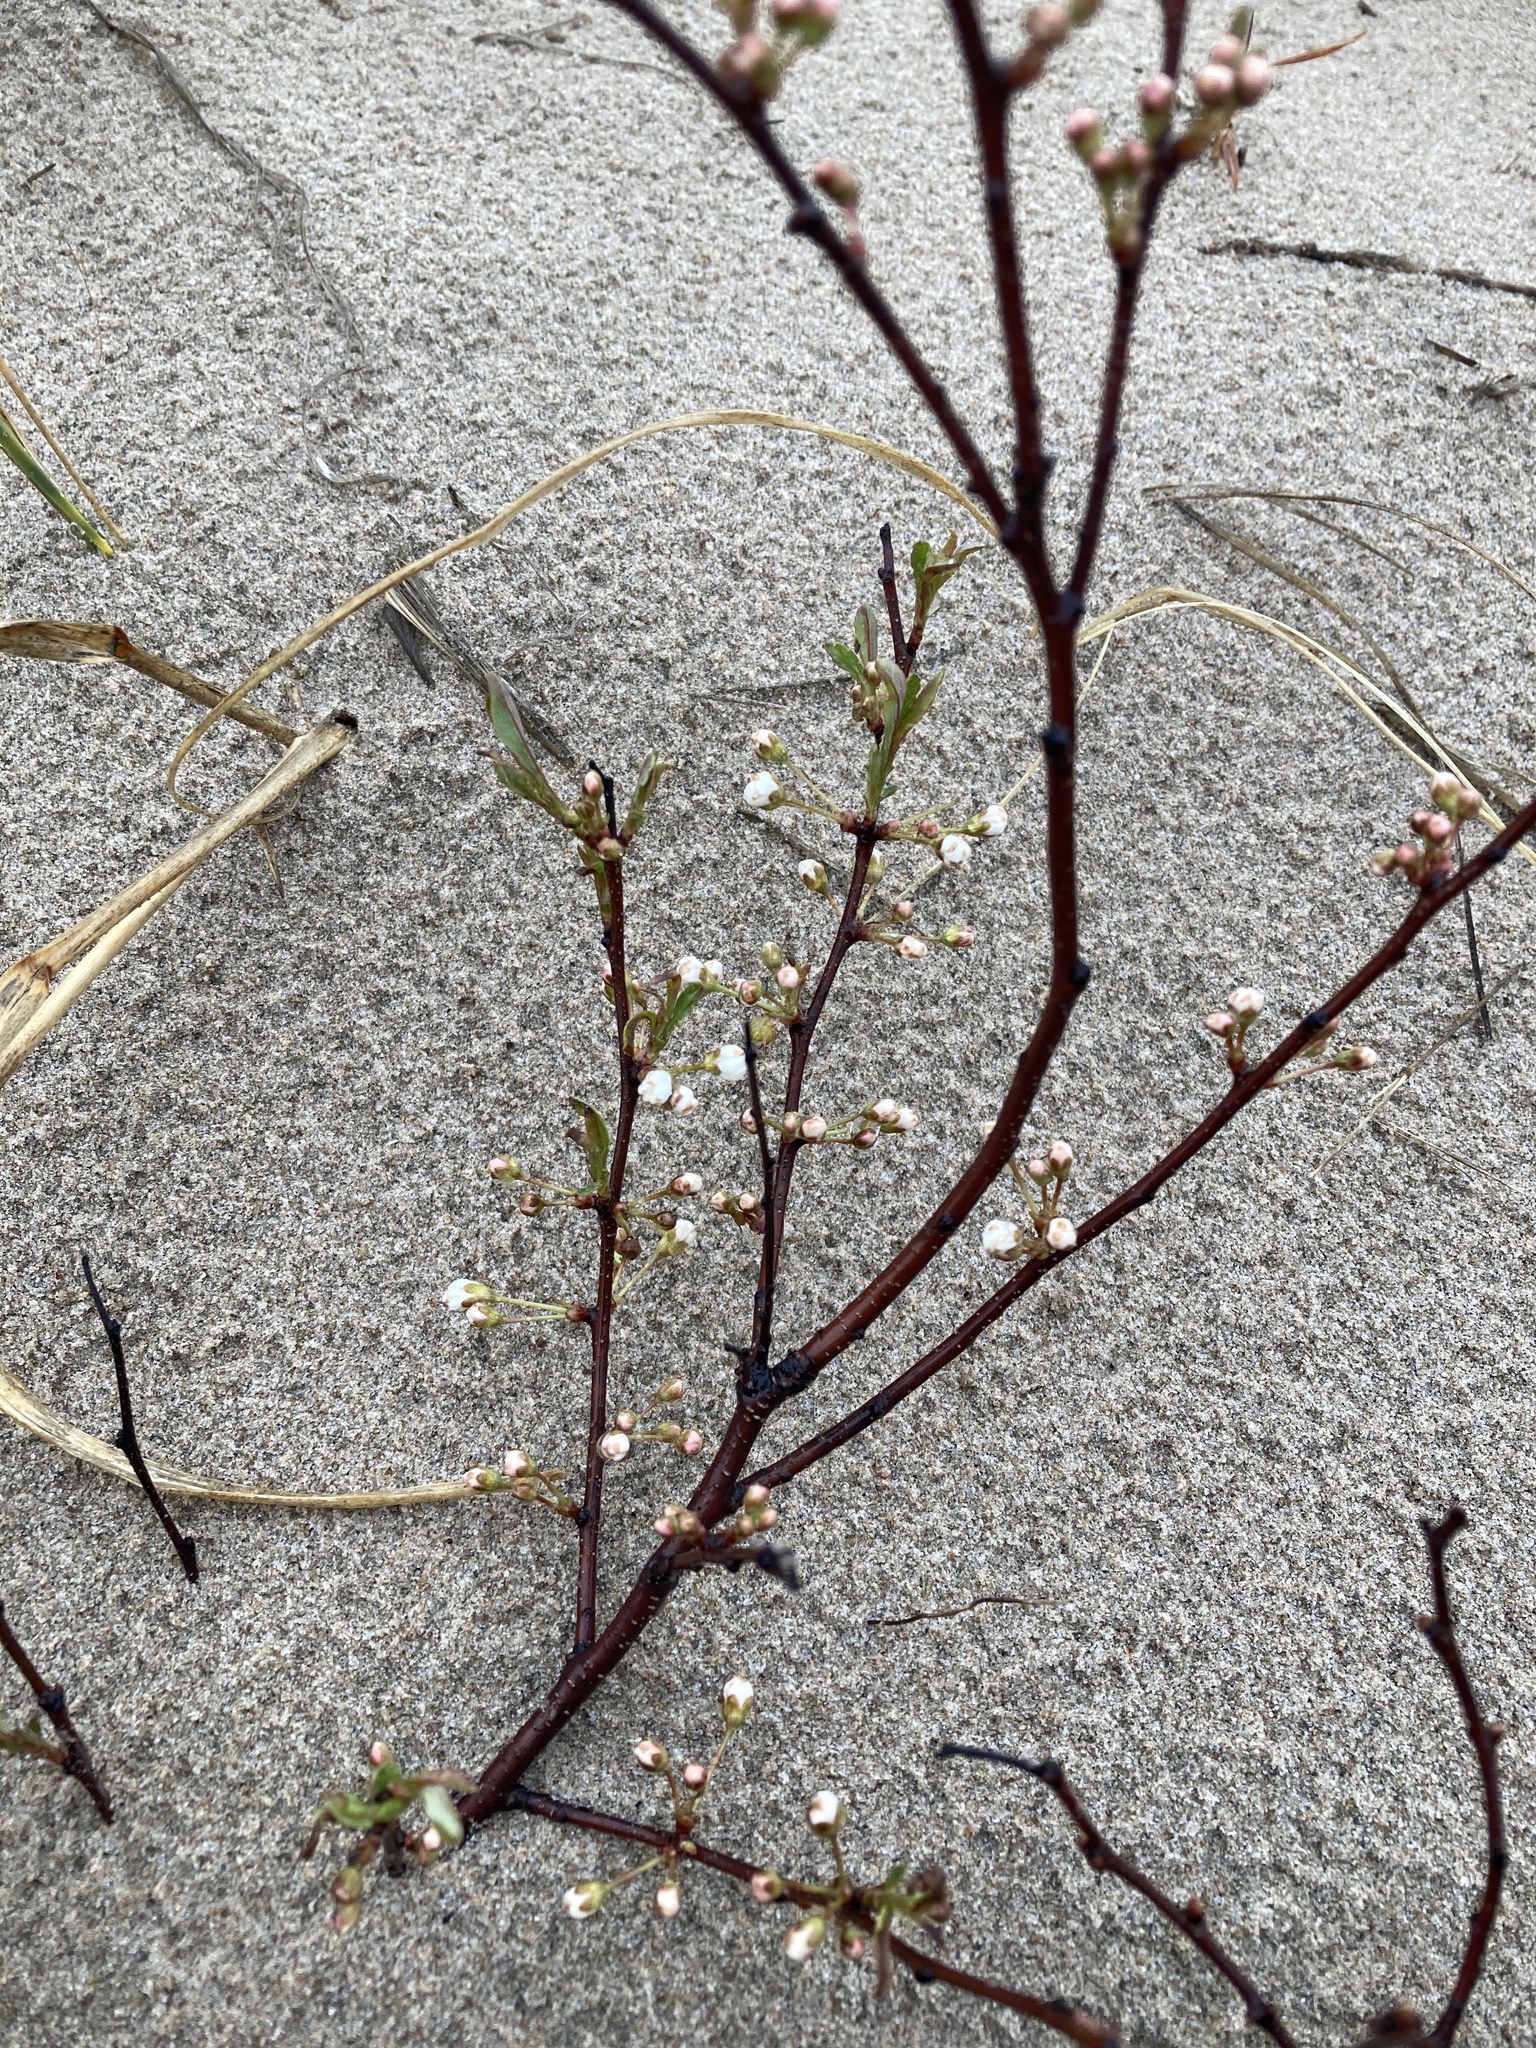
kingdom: Plantae
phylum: Tracheophyta
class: Magnoliopsida
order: Rosales
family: Rosaceae
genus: Prunus
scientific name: Prunus pumila
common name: Dwarf cherry
